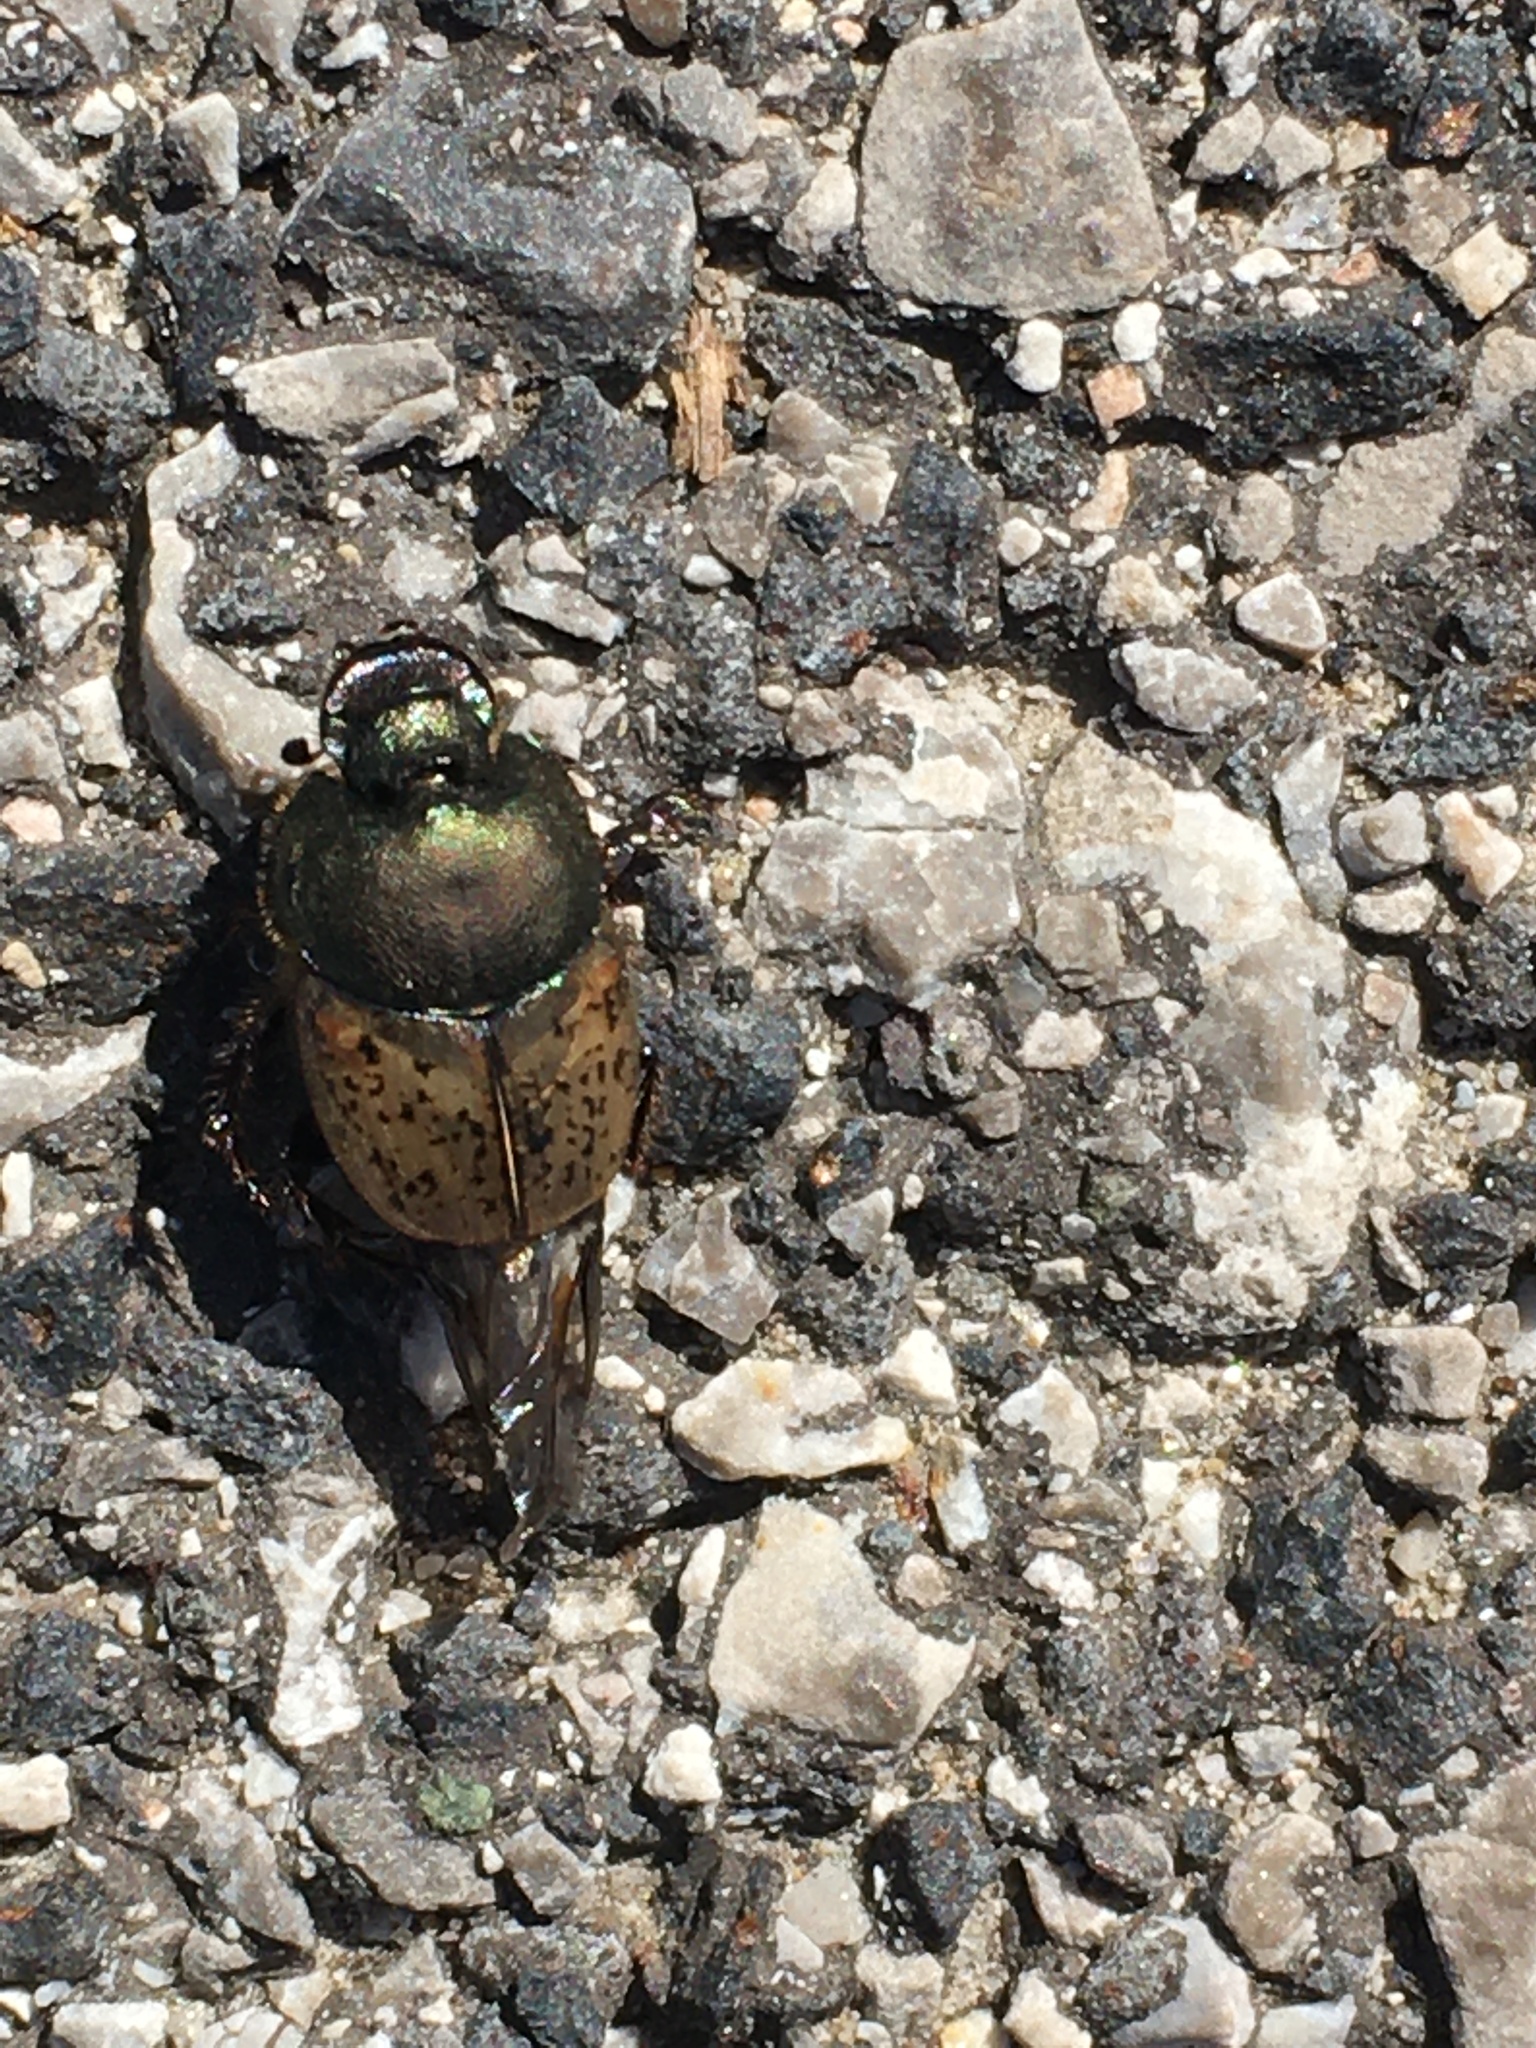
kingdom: Animalia
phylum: Arthropoda
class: Insecta
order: Coleoptera
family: Scarabaeidae
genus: Onthophagus
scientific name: Onthophagus vacca
